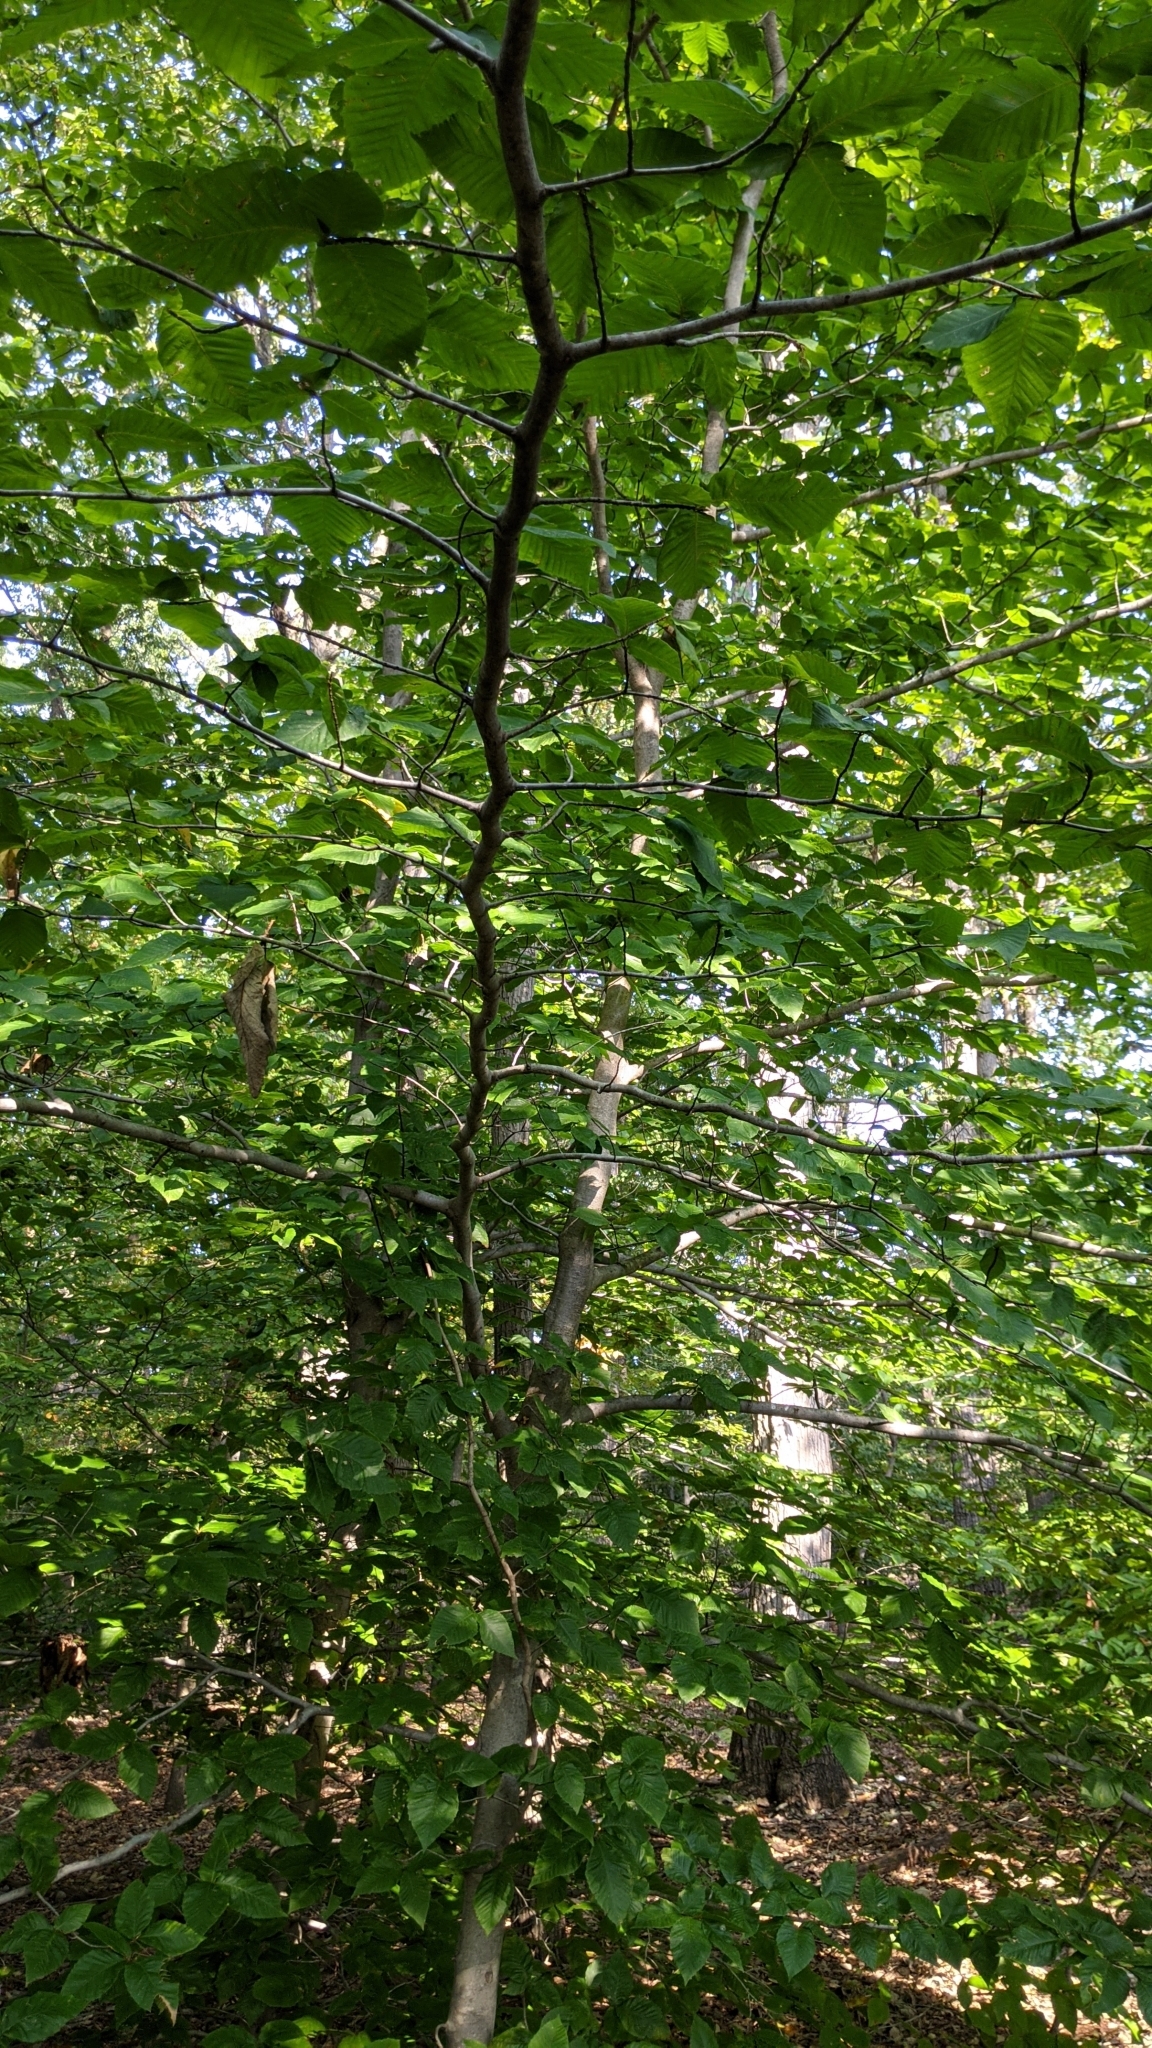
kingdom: Plantae
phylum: Tracheophyta
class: Magnoliopsida
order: Fagales
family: Fagaceae
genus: Fagus
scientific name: Fagus grandifolia
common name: American beech
